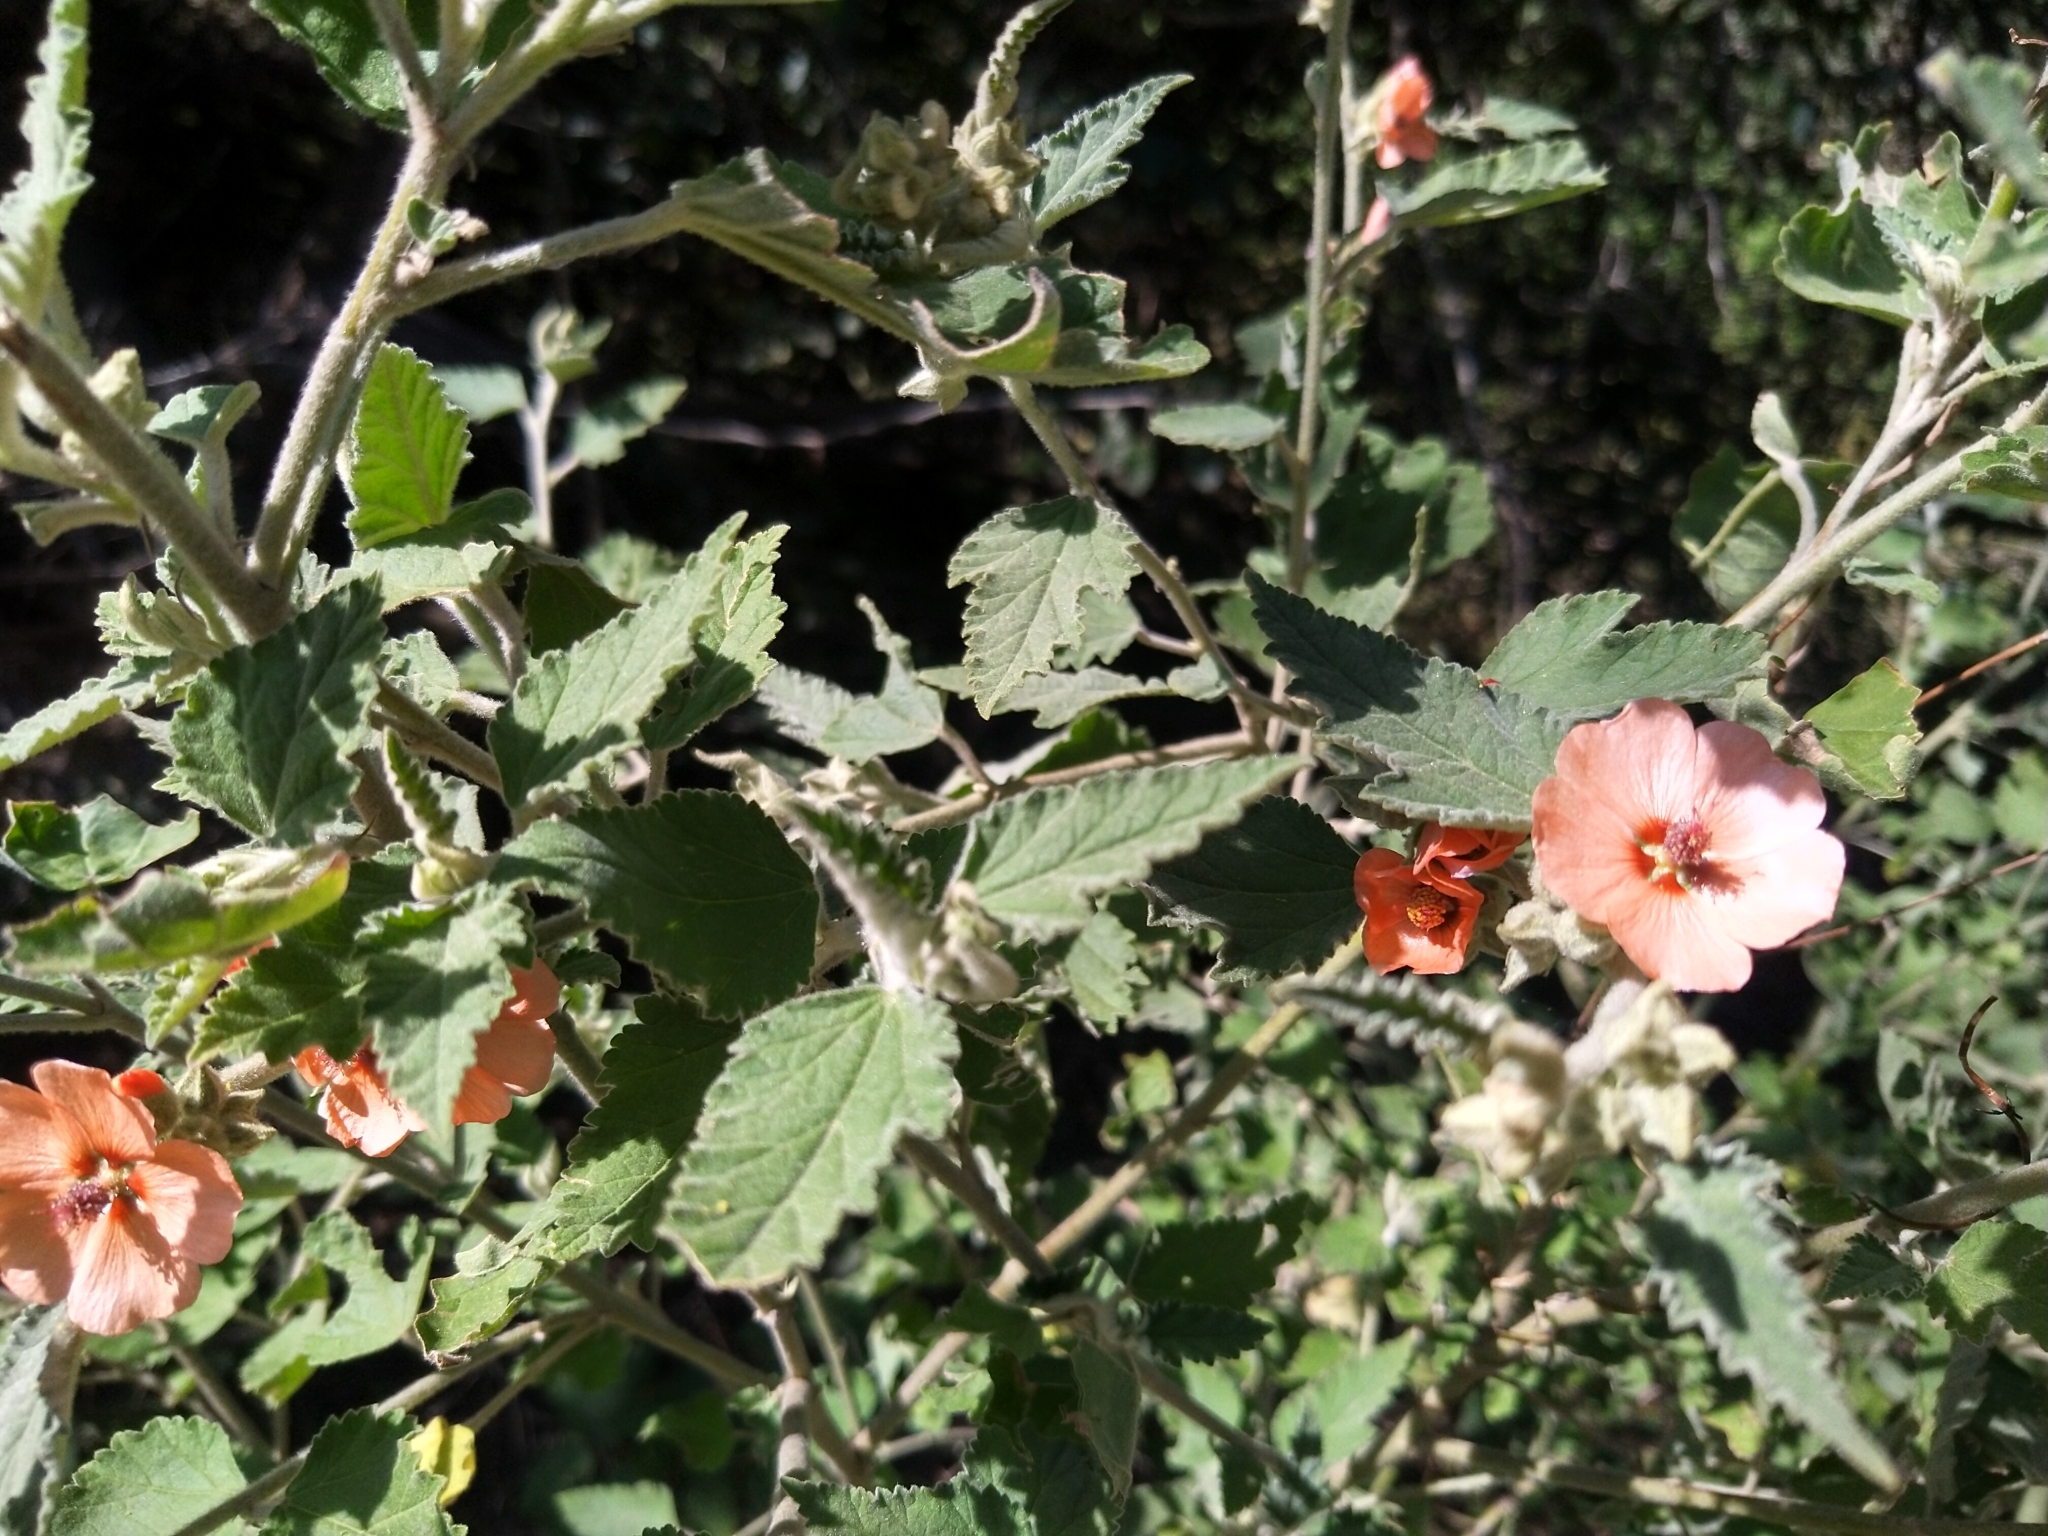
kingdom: Plantae
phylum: Tracheophyta
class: Magnoliopsida
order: Malvales
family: Malvaceae
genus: Sphaeralcea
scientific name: Sphaeralcea bonariensis
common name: Latin globemallow
